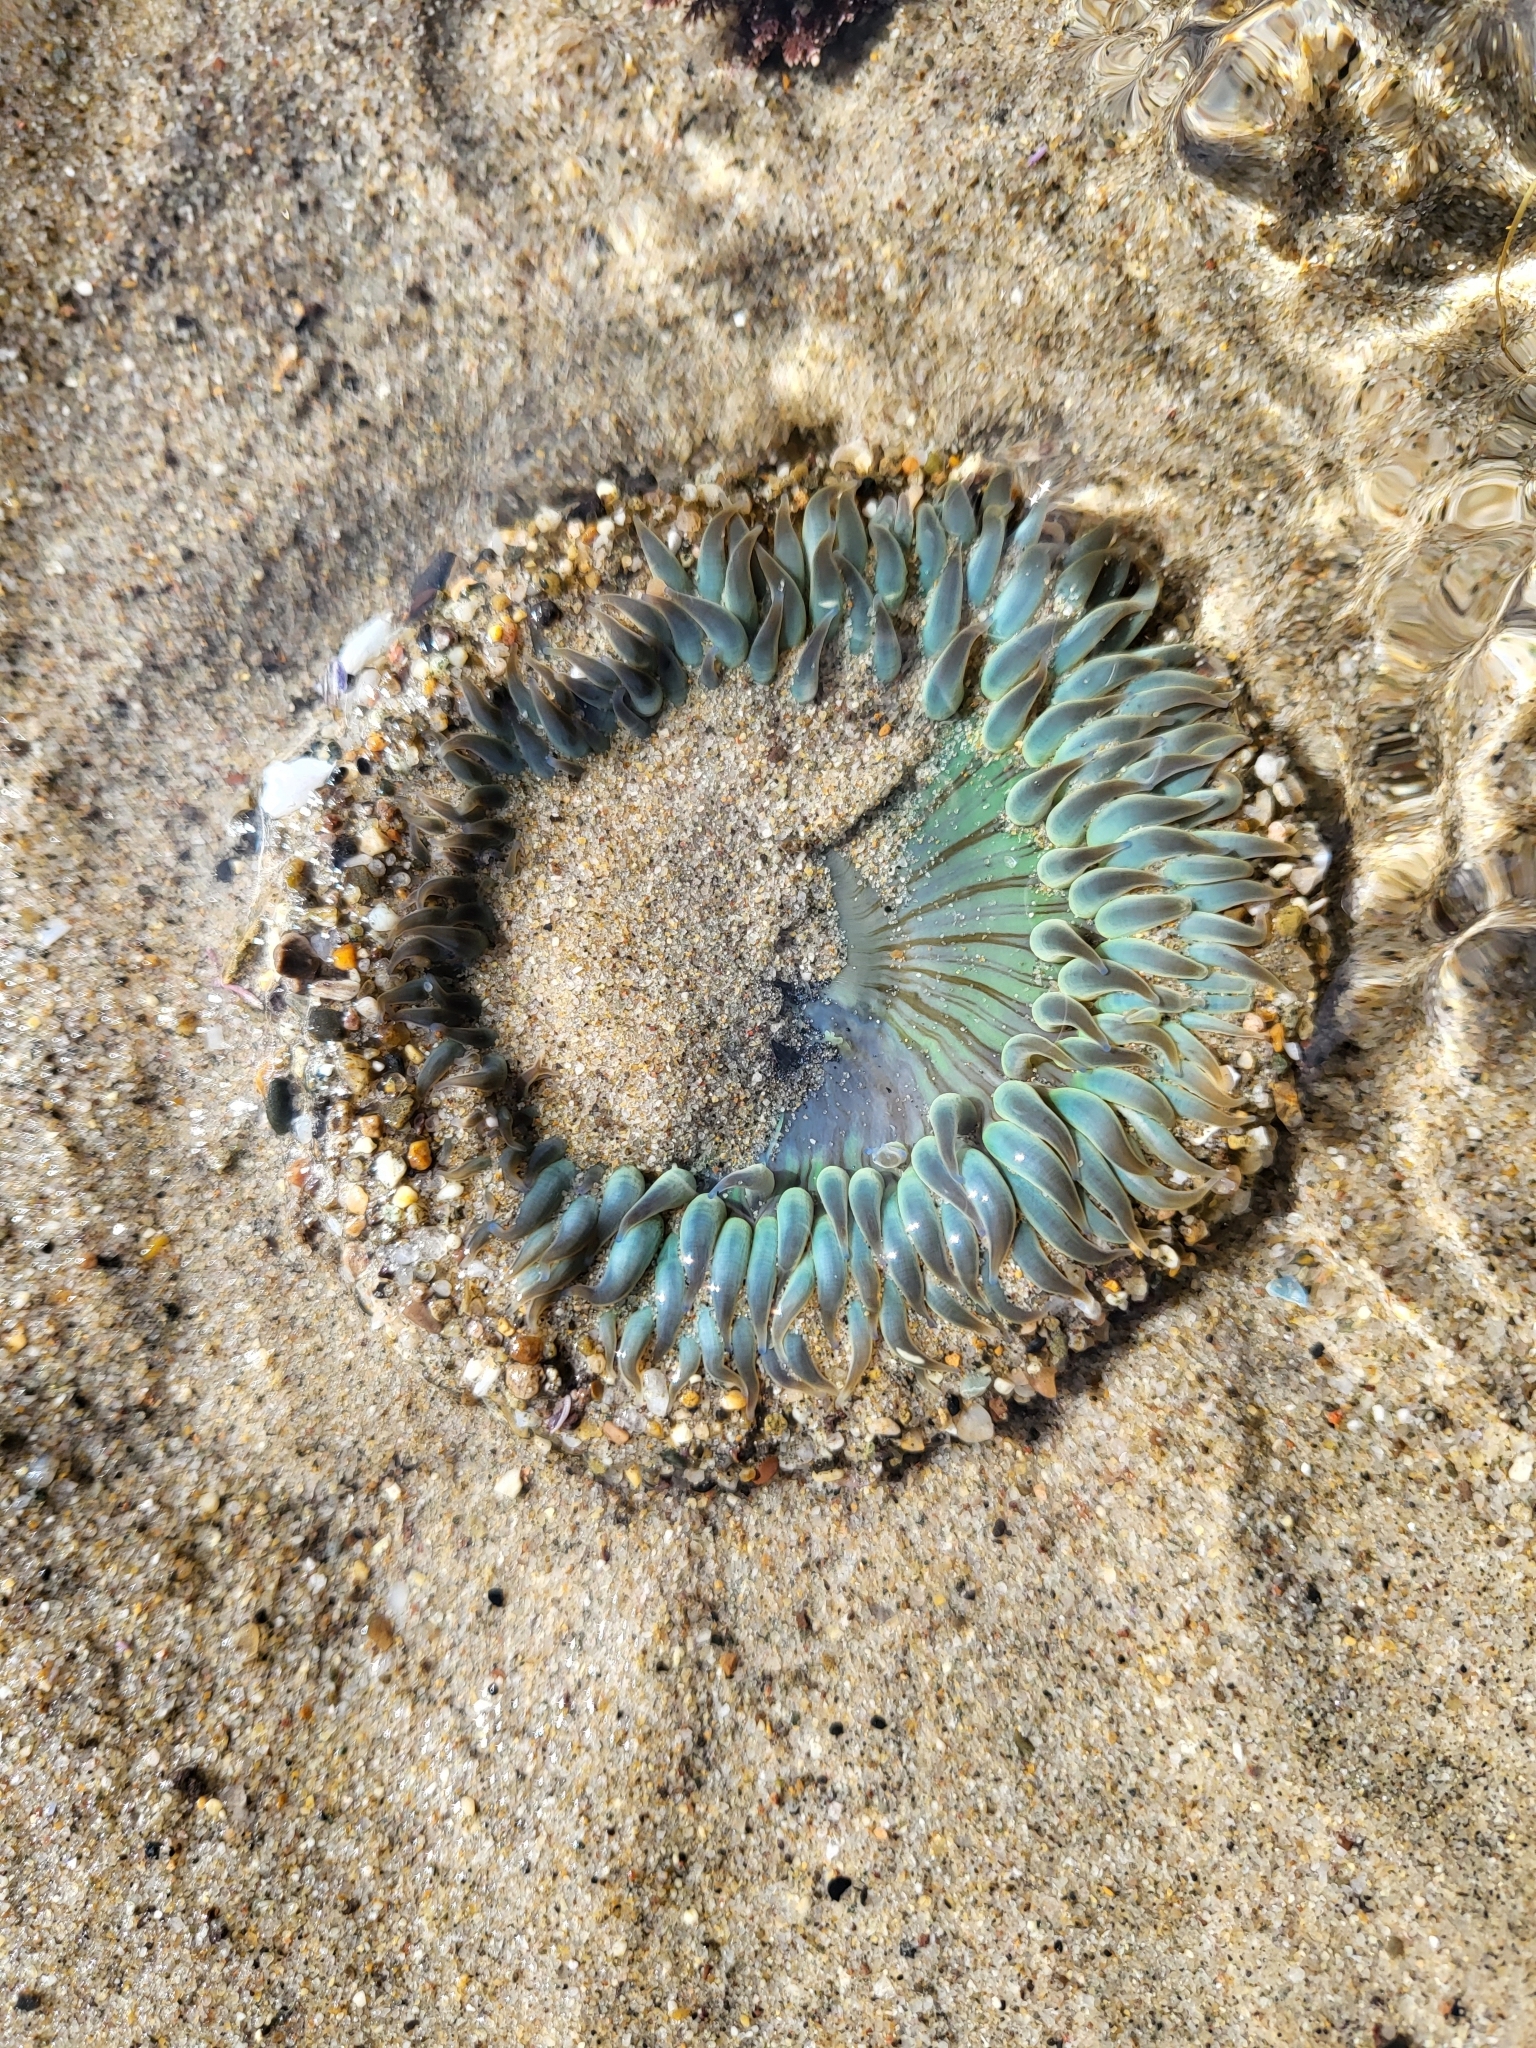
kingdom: Animalia
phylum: Cnidaria
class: Anthozoa
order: Actiniaria
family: Actiniidae
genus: Anthopleura
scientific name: Anthopleura sola
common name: Sun anemone
